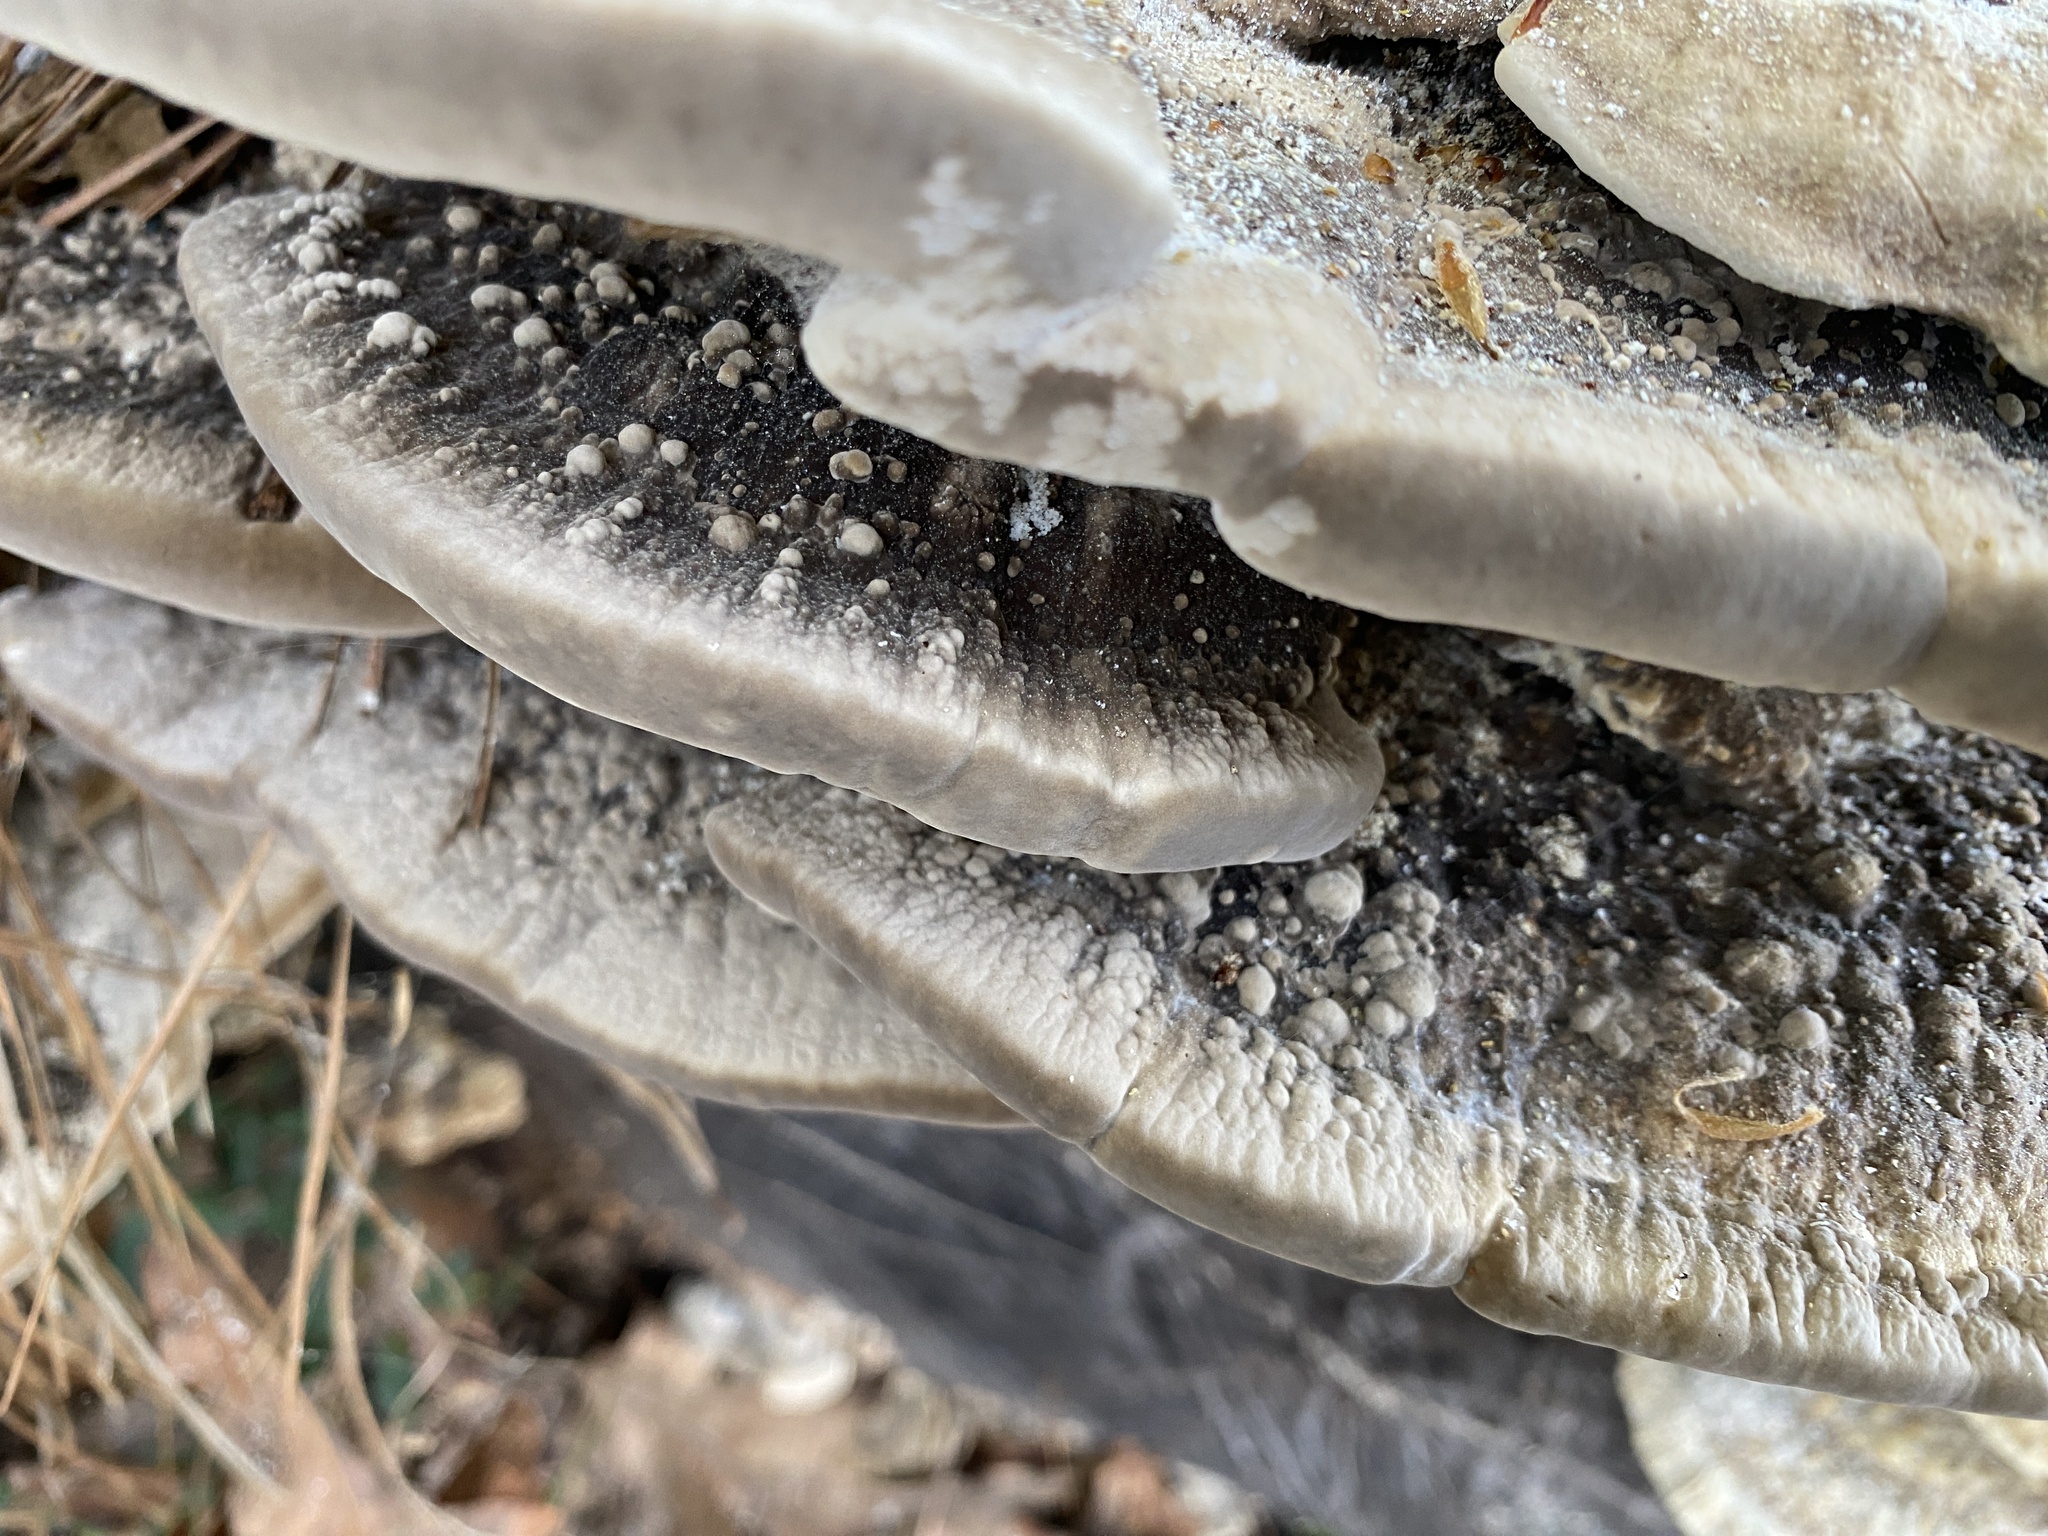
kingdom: Fungi
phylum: Basidiomycota
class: Agaricomycetes
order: Polyporales
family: Polyporaceae
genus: Trametes
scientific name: Trametes lactinea
